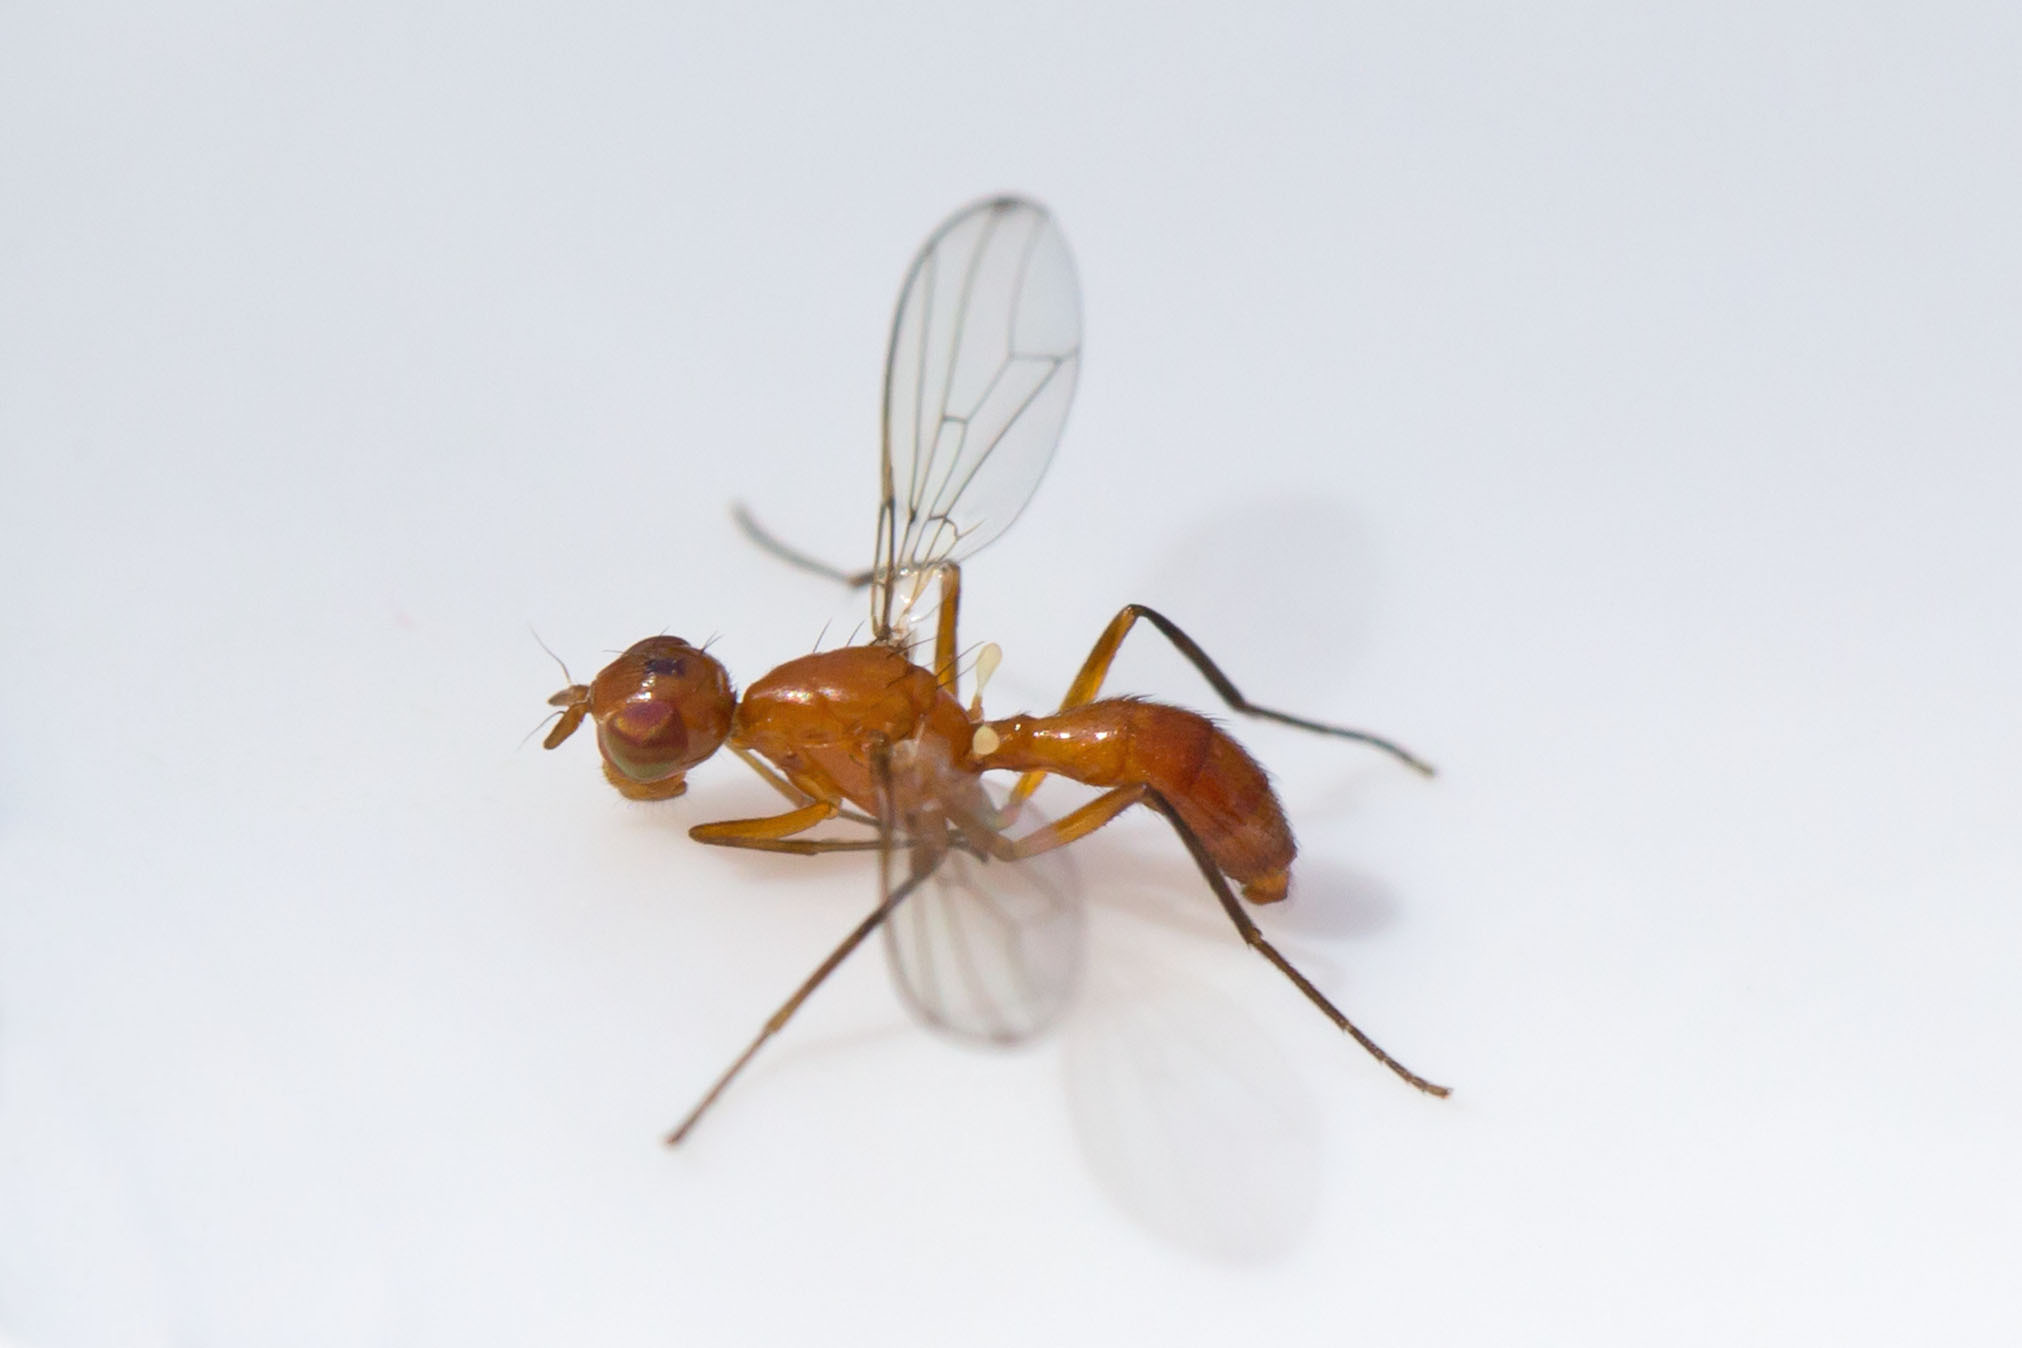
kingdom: Animalia
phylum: Arthropoda
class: Insecta
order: Diptera
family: Richardiidae
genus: Sepsisoma
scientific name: Sepsisoma flavescens
